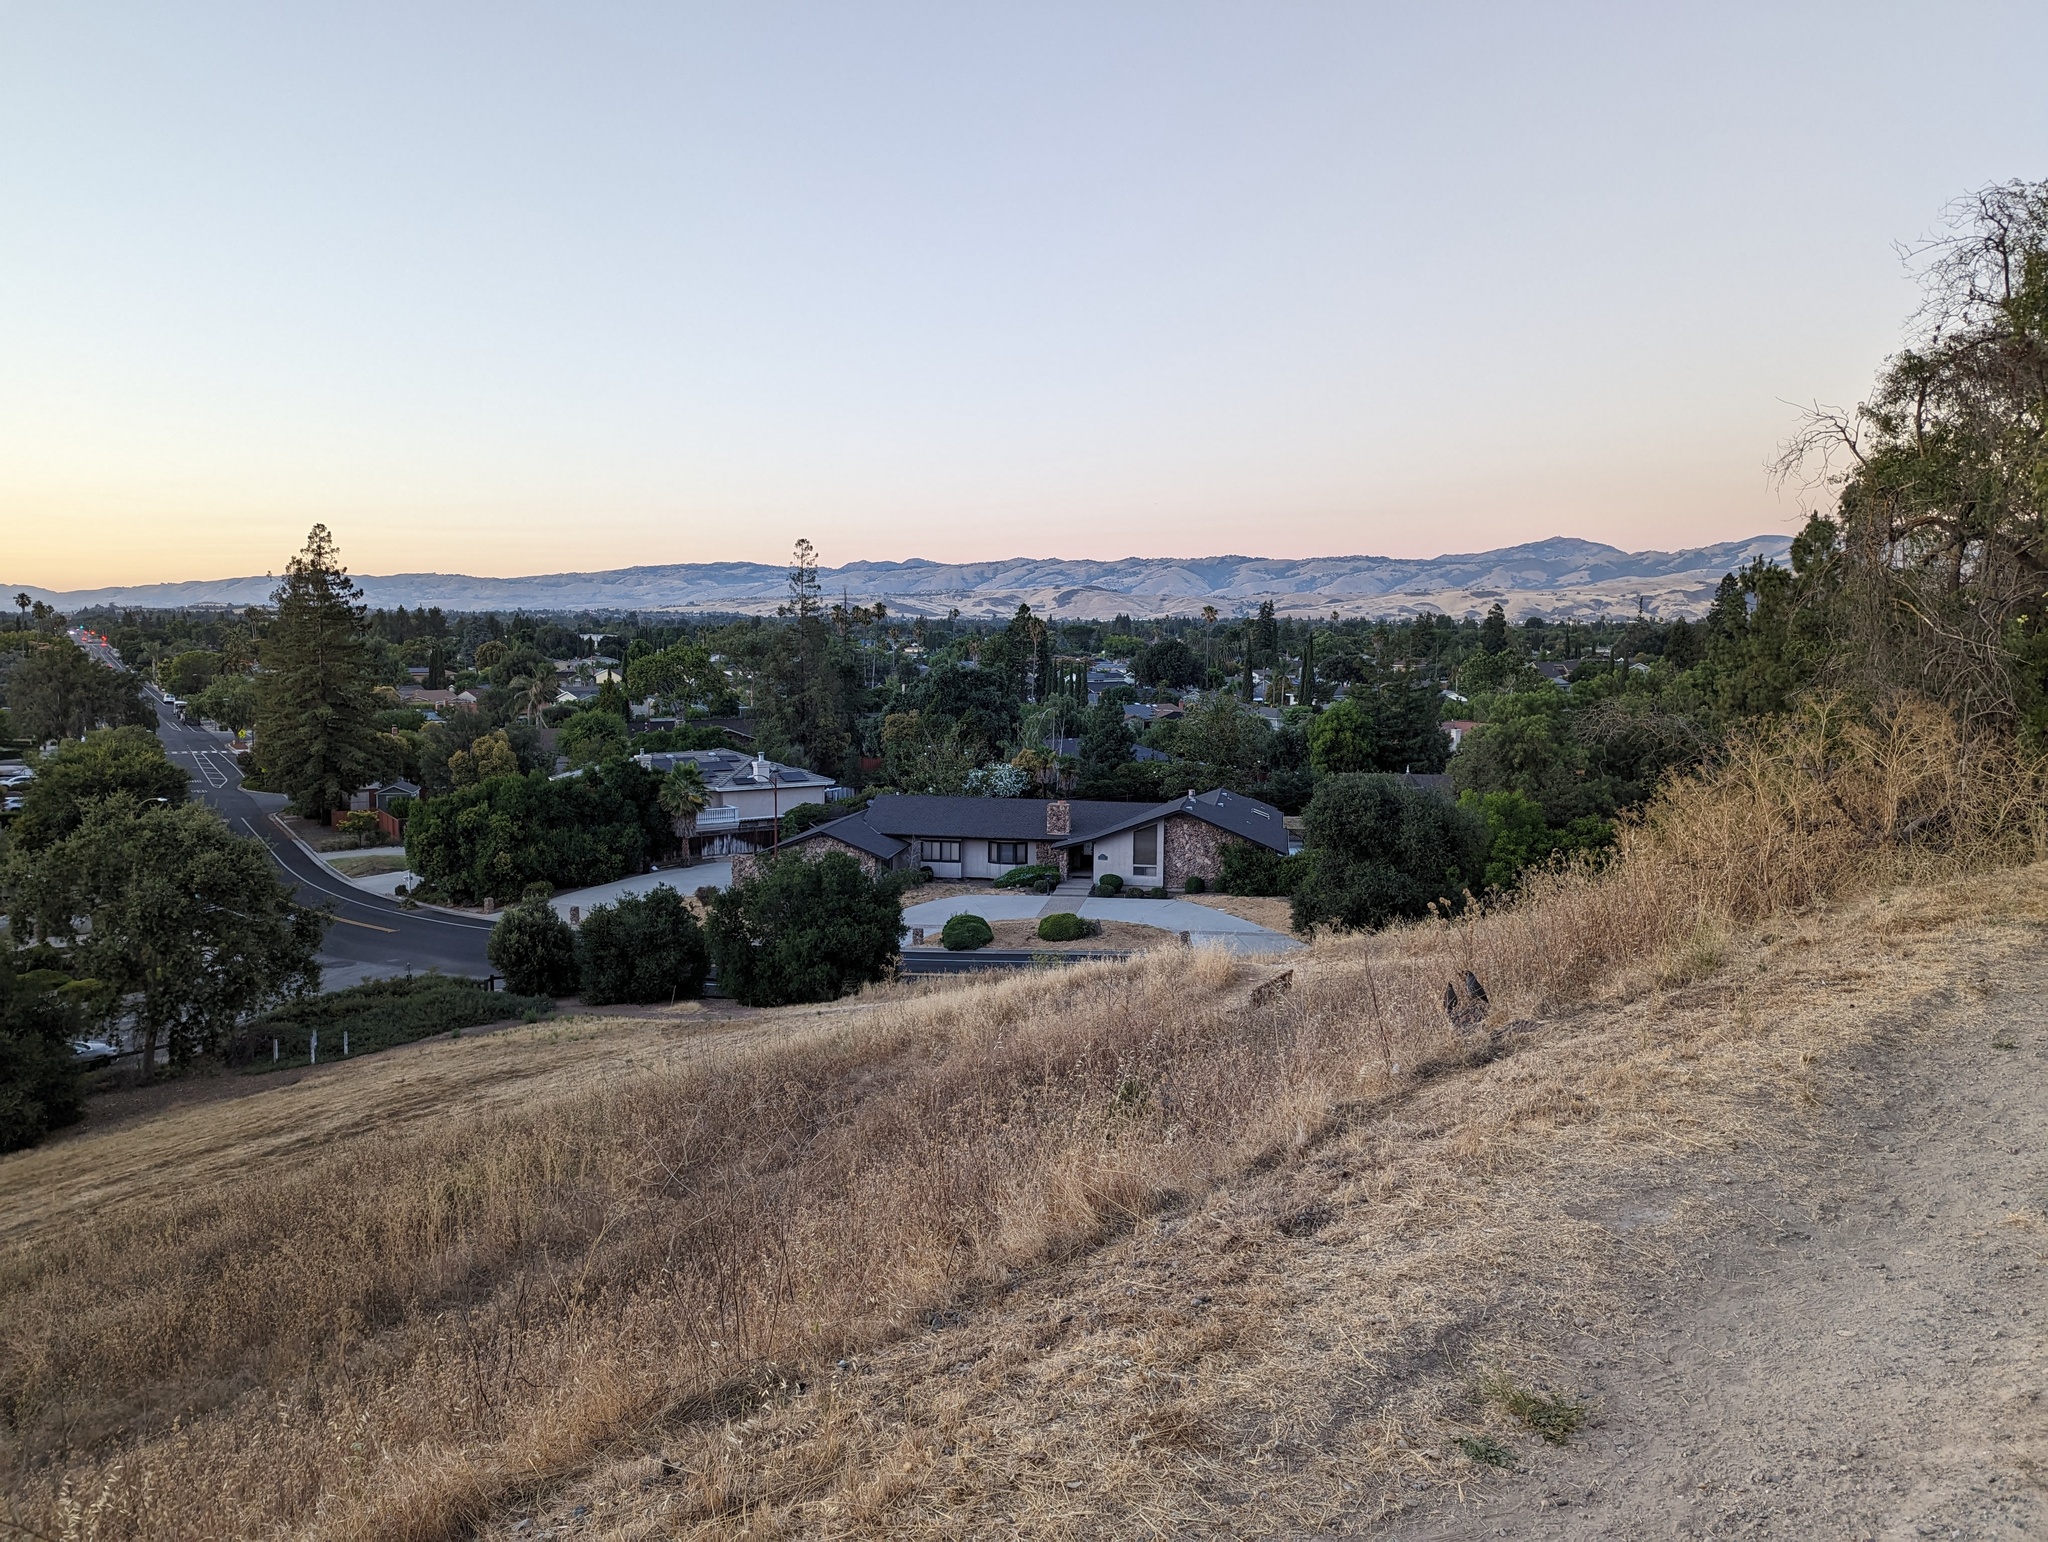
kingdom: Animalia
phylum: Chordata
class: Aves
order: Galliformes
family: Odontophoridae
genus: Callipepla
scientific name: Callipepla californica
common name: California quail
